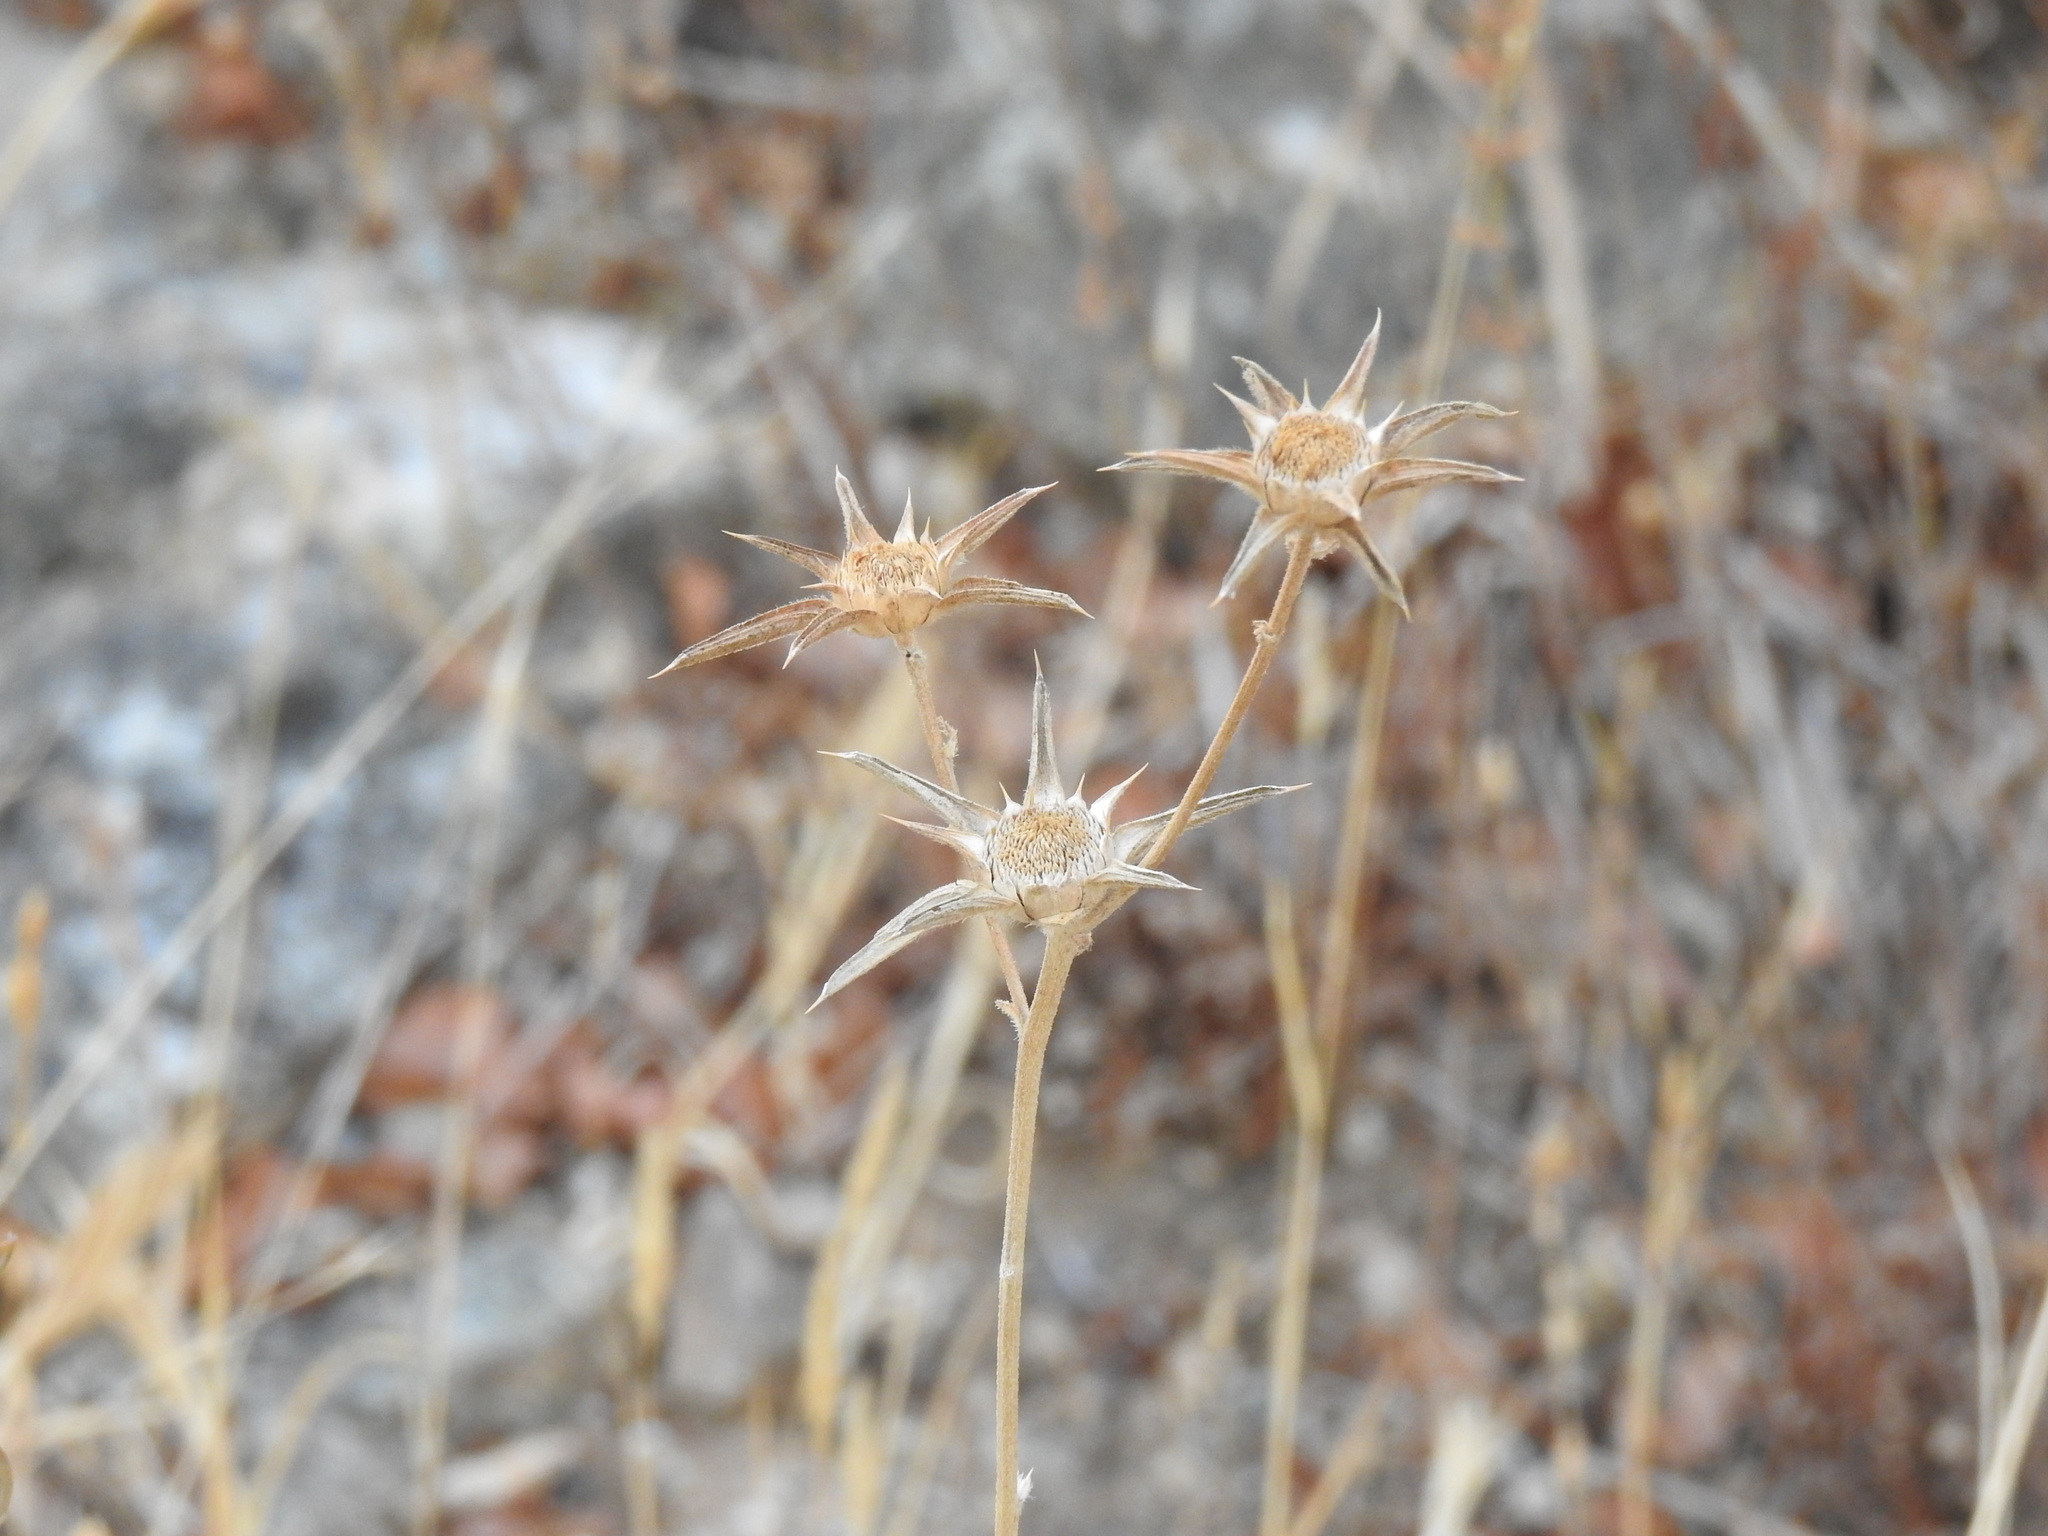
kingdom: Plantae
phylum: Tracheophyta
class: Magnoliopsida
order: Asterales
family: Asteraceae
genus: Pallenis
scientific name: Pallenis spinosa
